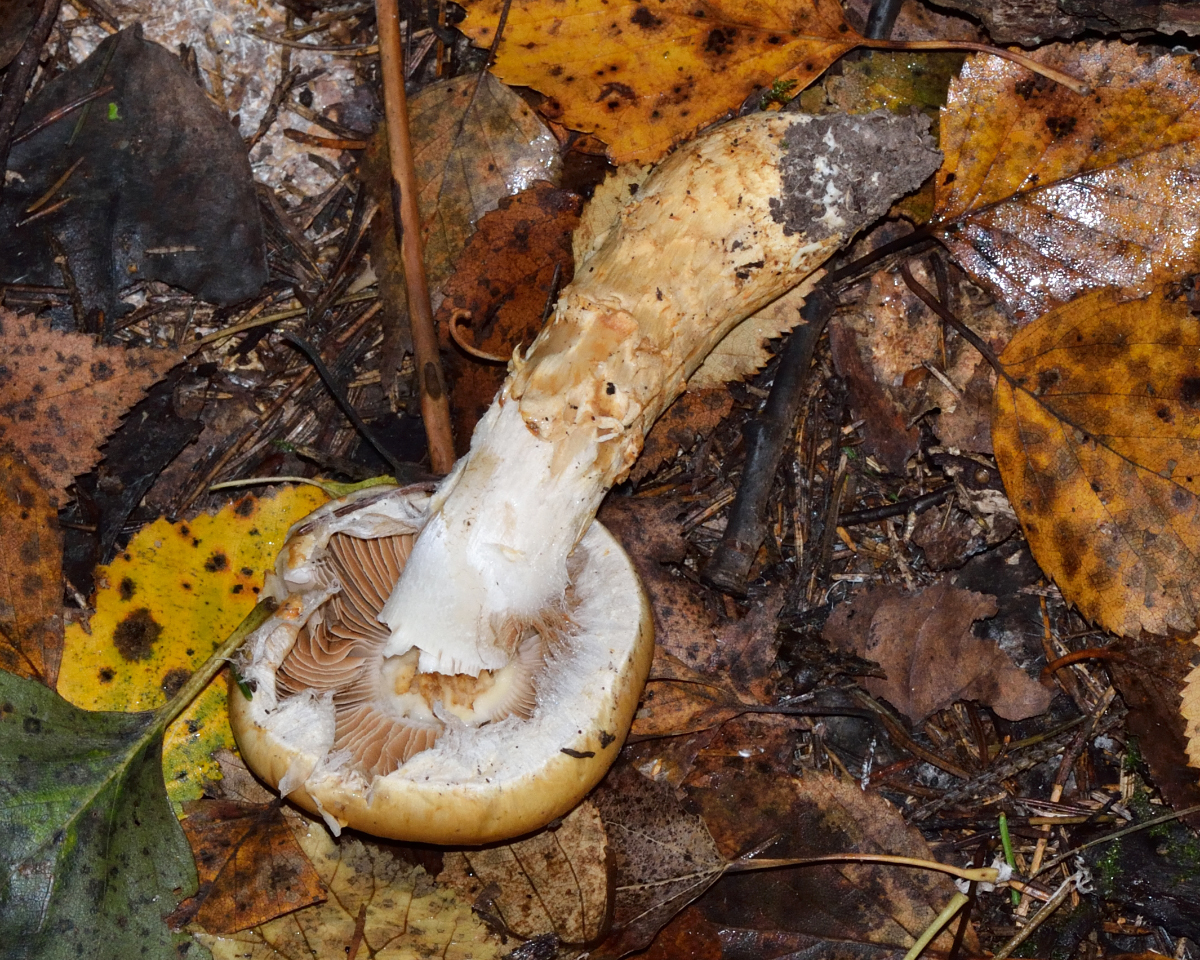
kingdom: Fungi
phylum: Basidiomycota
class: Agaricomycetes
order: Agaricales
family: Cortinariaceae
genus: Phlegmacium
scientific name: Phlegmacium triumphans
